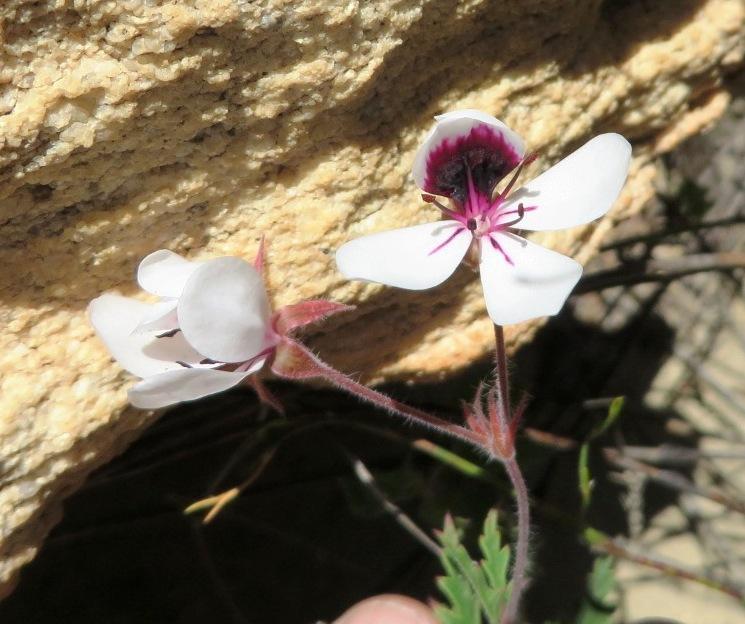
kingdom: Plantae
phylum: Tracheophyta
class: Magnoliopsida
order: Geraniales
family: Geraniaceae
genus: Pelargonium
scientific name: Pelargonium tricolor
